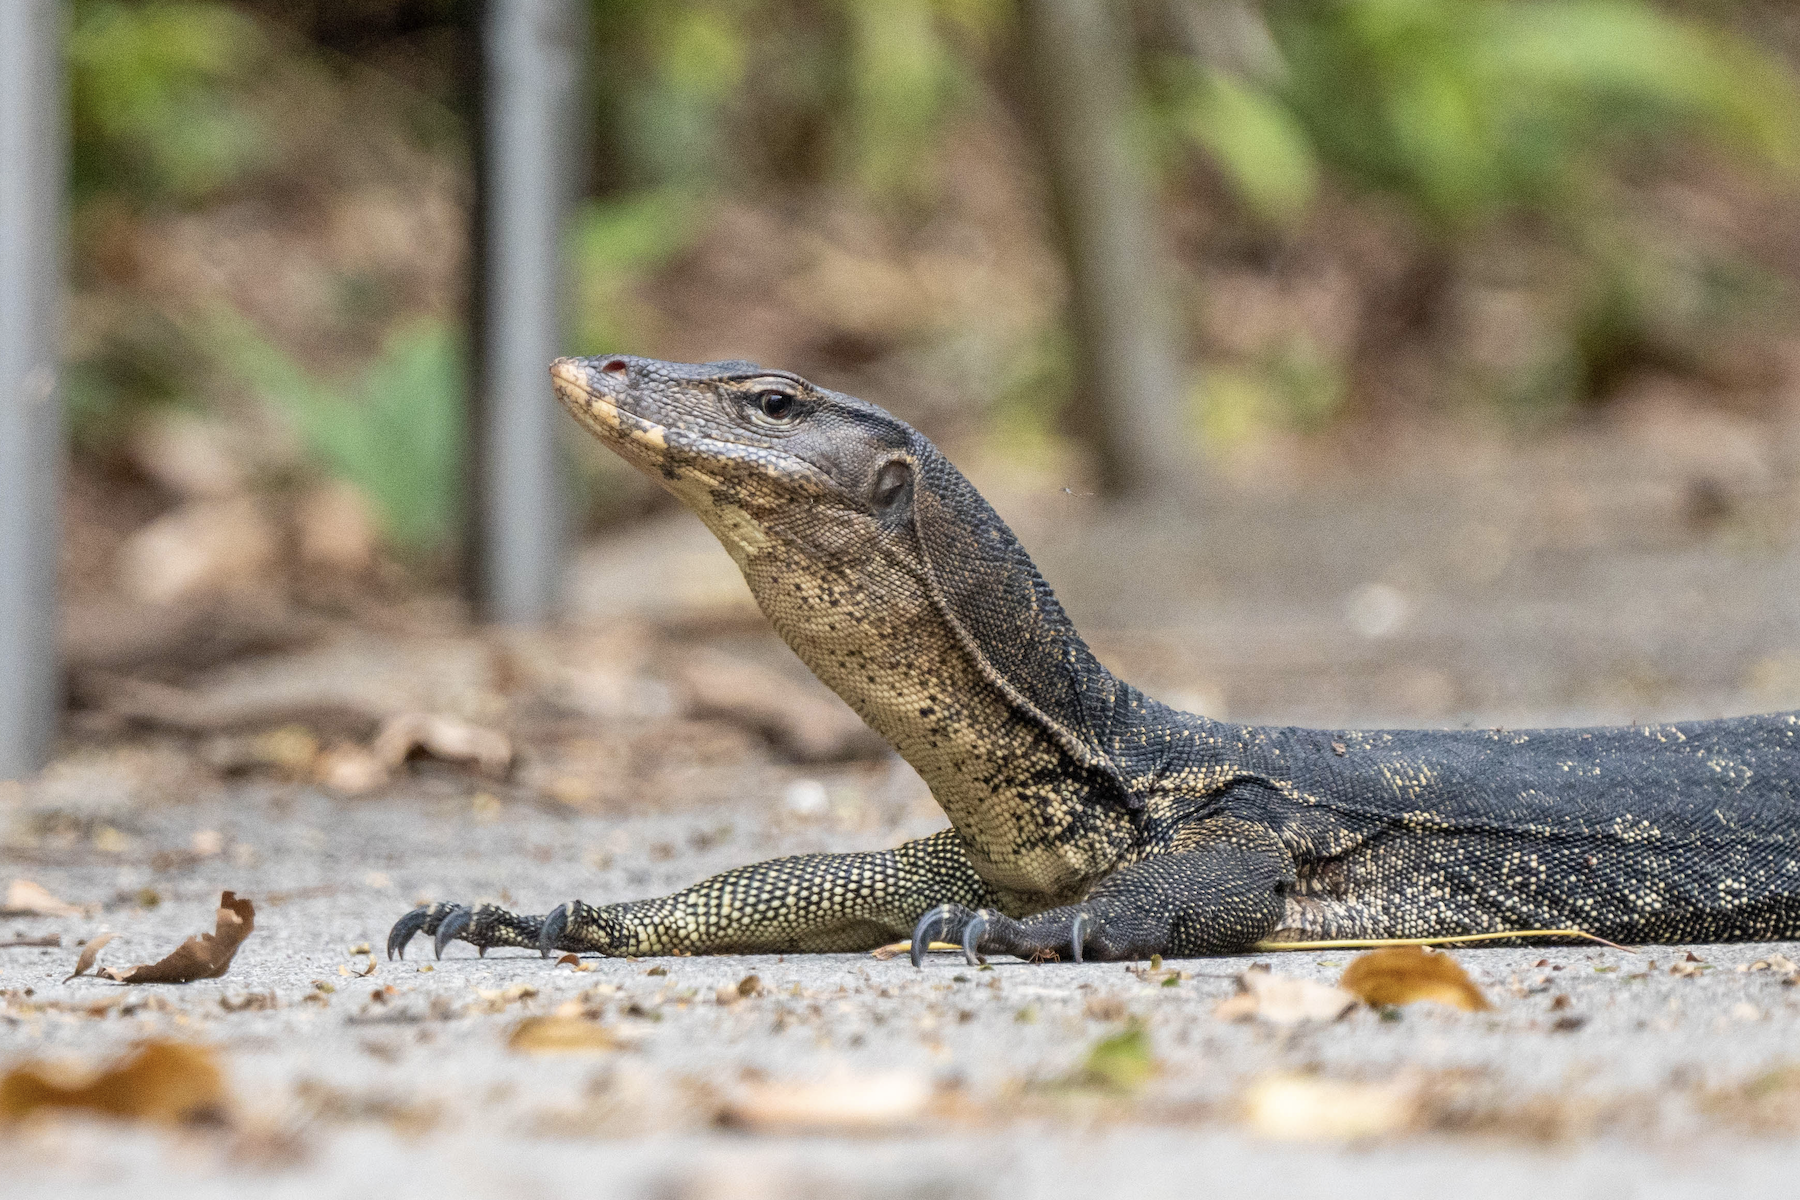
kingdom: Animalia
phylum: Chordata
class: Squamata
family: Varanidae
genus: Varanus
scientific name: Varanus salvator
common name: Common water monitor
